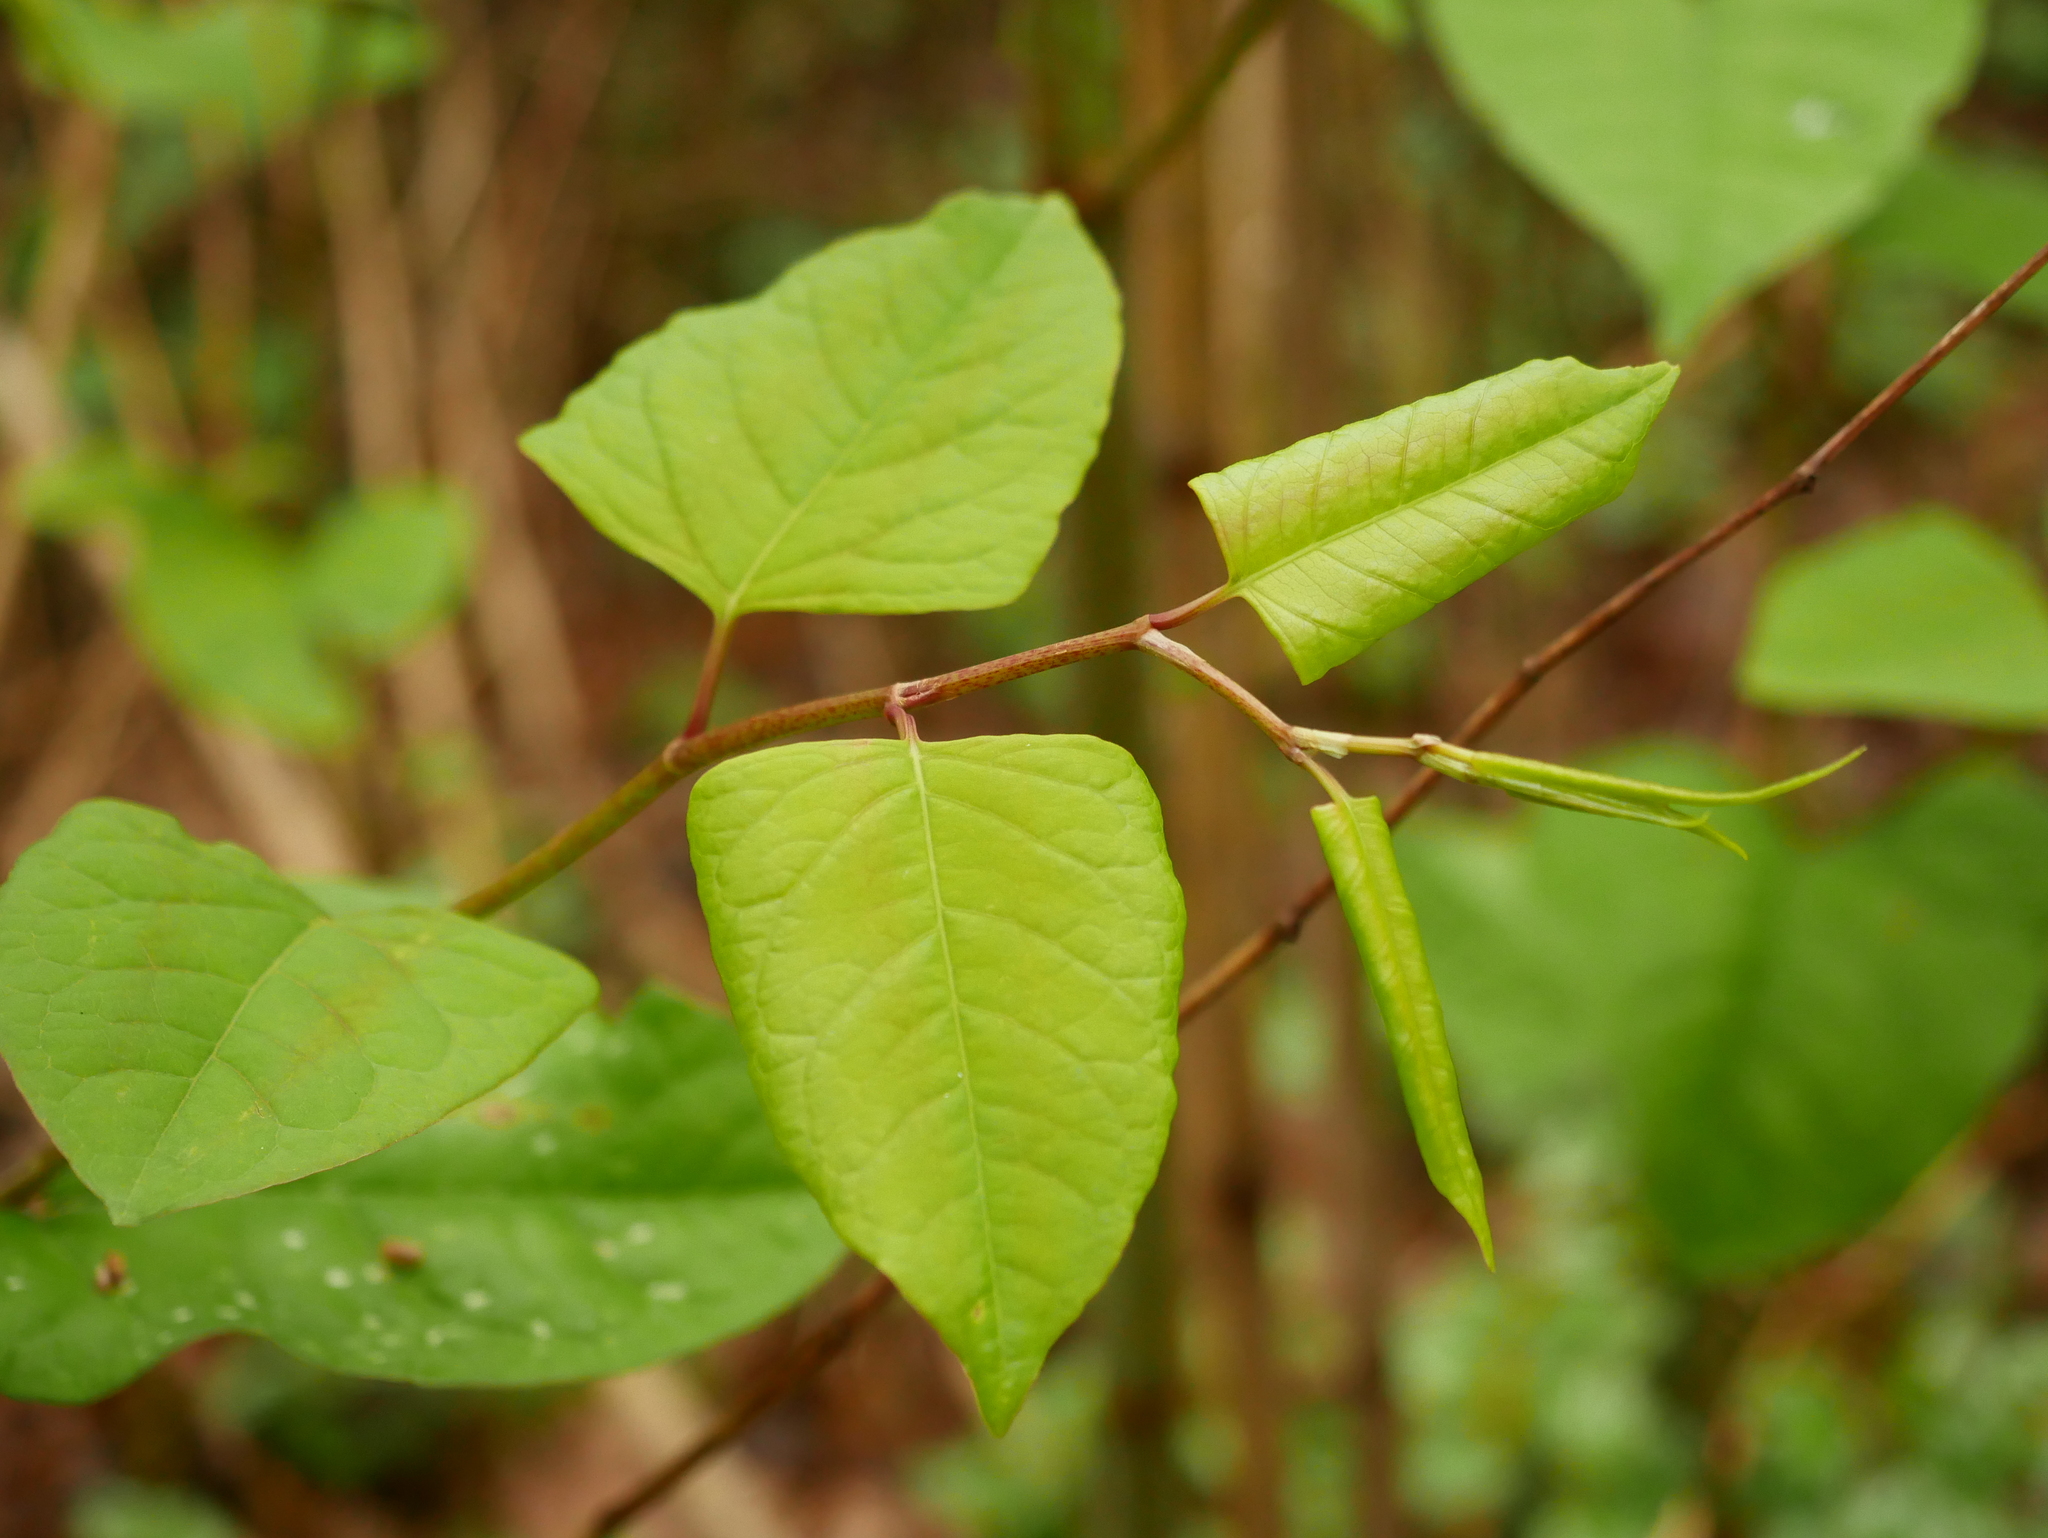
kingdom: Plantae
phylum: Tracheophyta
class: Magnoliopsida
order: Caryophyllales
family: Polygonaceae
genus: Reynoutria
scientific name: Reynoutria japonica
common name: Japanese knotweed
